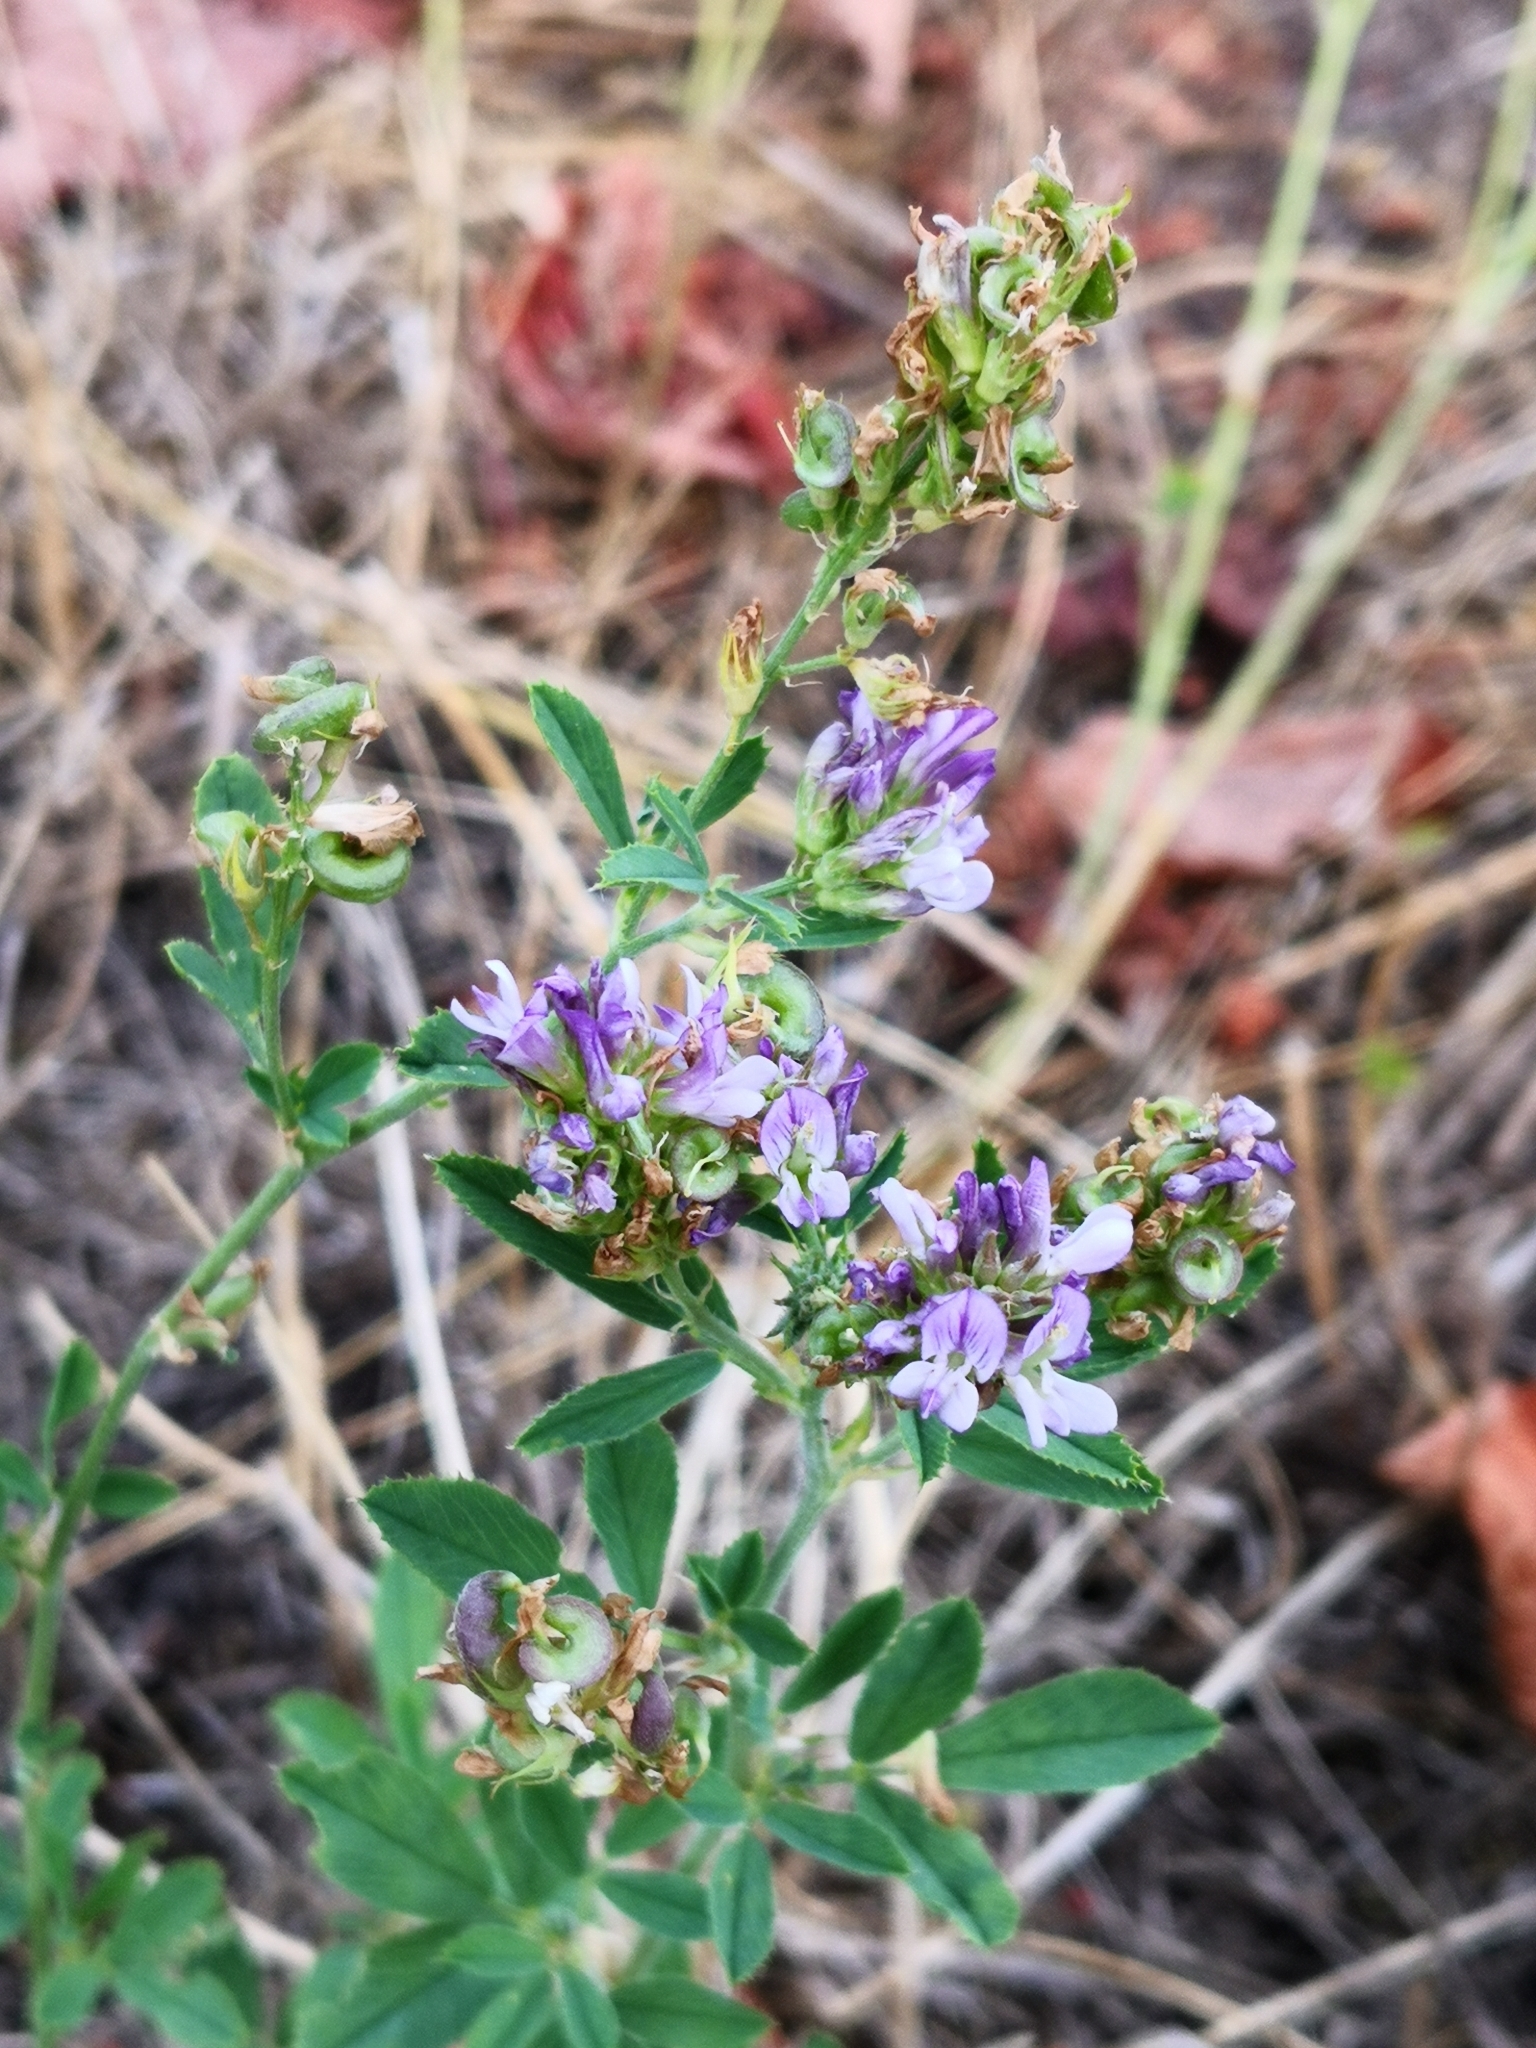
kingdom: Plantae
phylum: Tracheophyta
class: Magnoliopsida
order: Fabales
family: Fabaceae
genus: Medicago
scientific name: Medicago sativa
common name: Alfalfa
